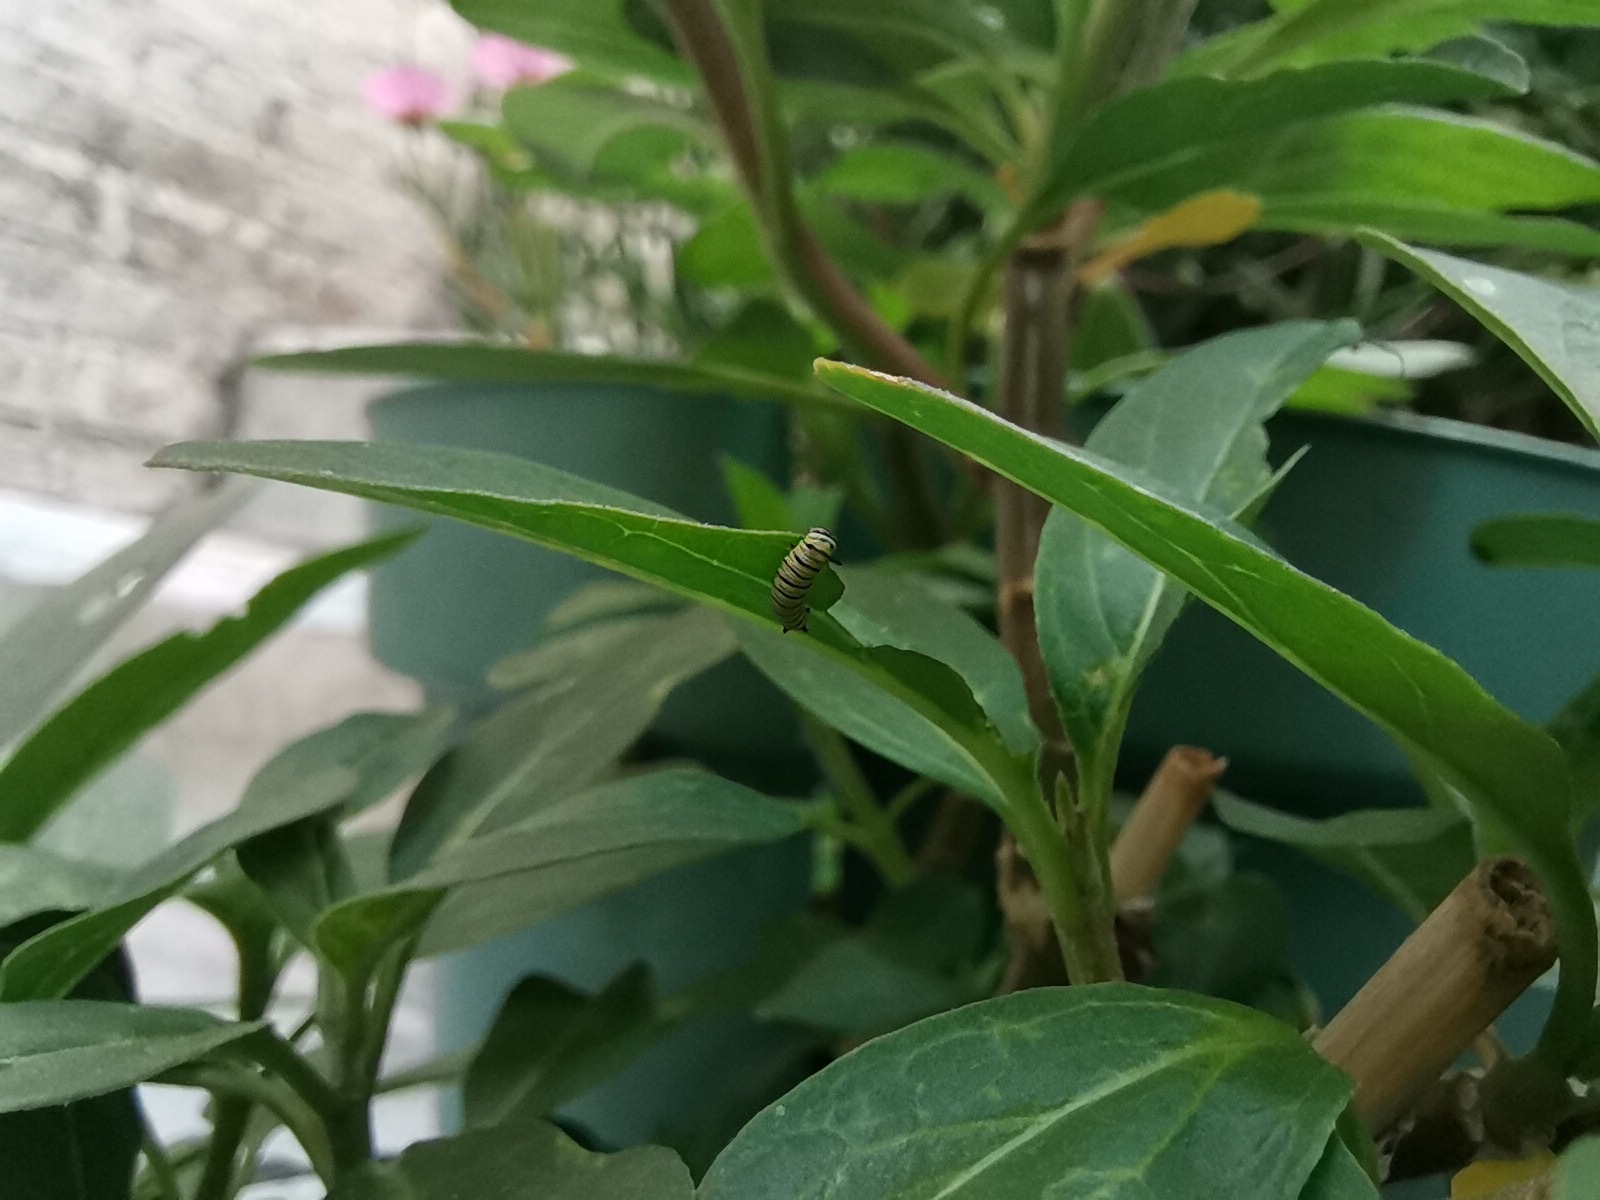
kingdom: Animalia
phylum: Arthropoda
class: Insecta
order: Lepidoptera
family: Nymphalidae
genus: Danaus
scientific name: Danaus plexippus
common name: Monarch
